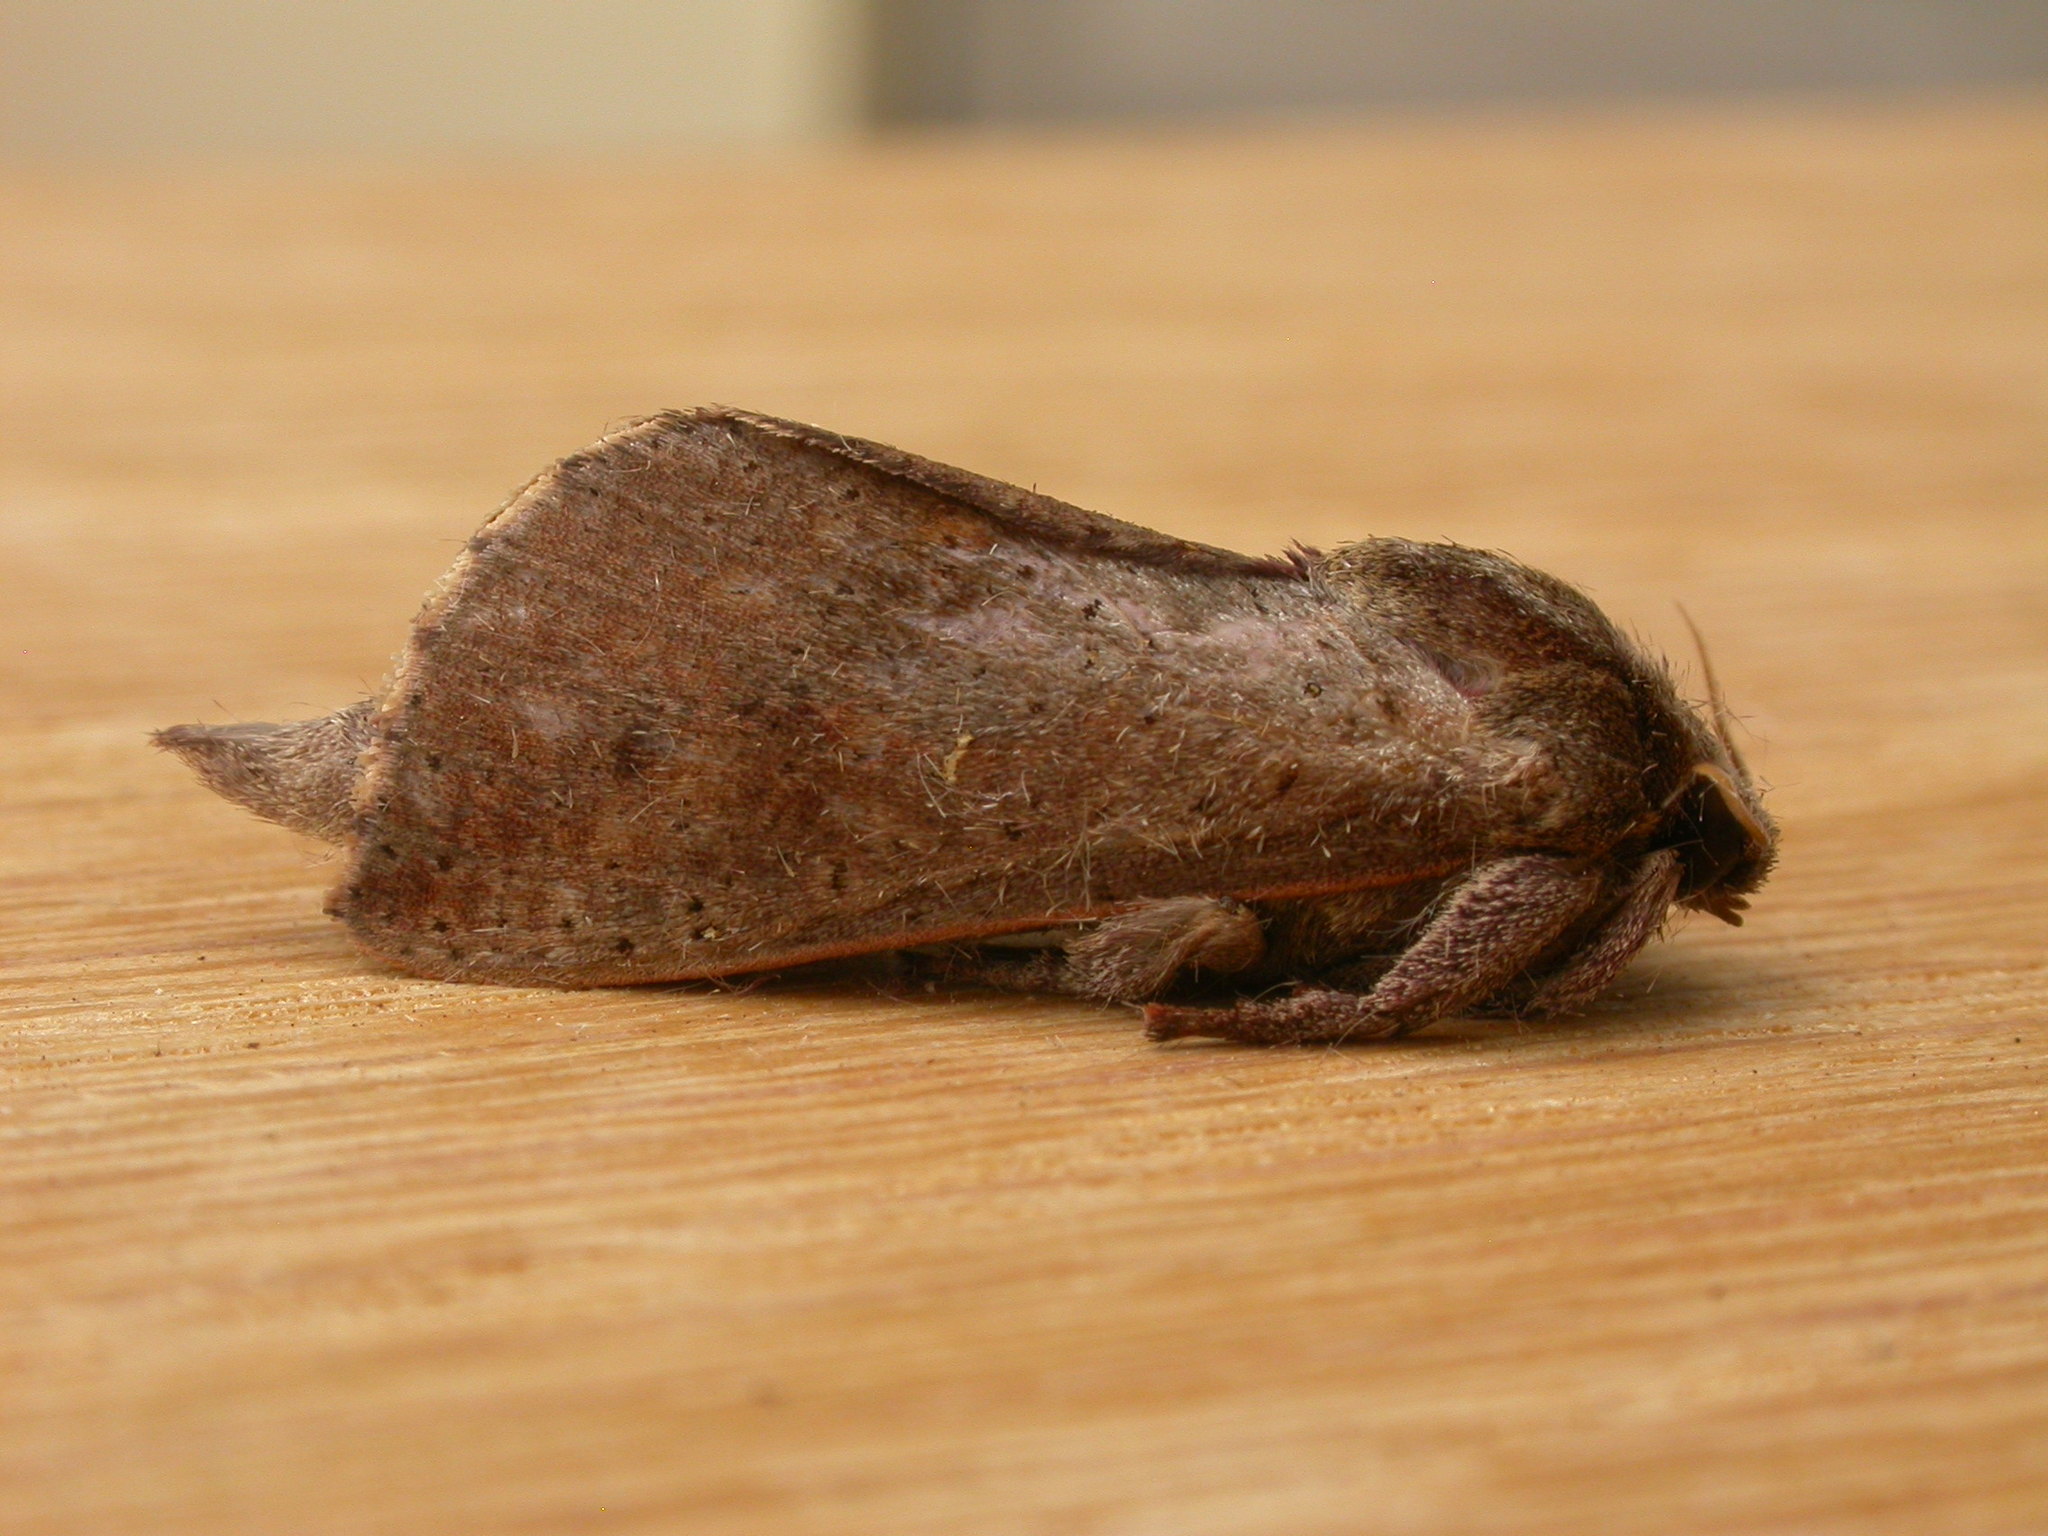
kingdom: Animalia
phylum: Arthropoda
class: Insecta
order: Lepidoptera
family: Hepialidae
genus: Elhamma
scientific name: Elhamma australasiae
